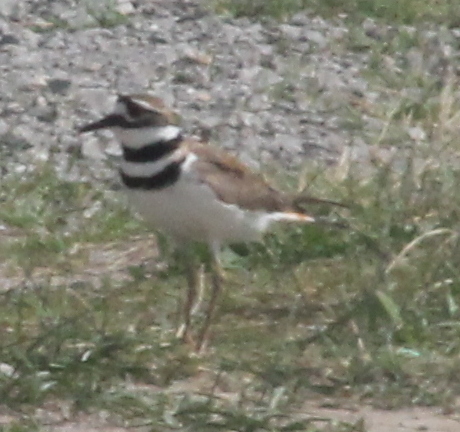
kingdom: Animalia
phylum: Chordata
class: Aves
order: Charadriiformes
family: Charadriidae
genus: Charadrius
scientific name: Charadrius vociferus
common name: Killdeer
